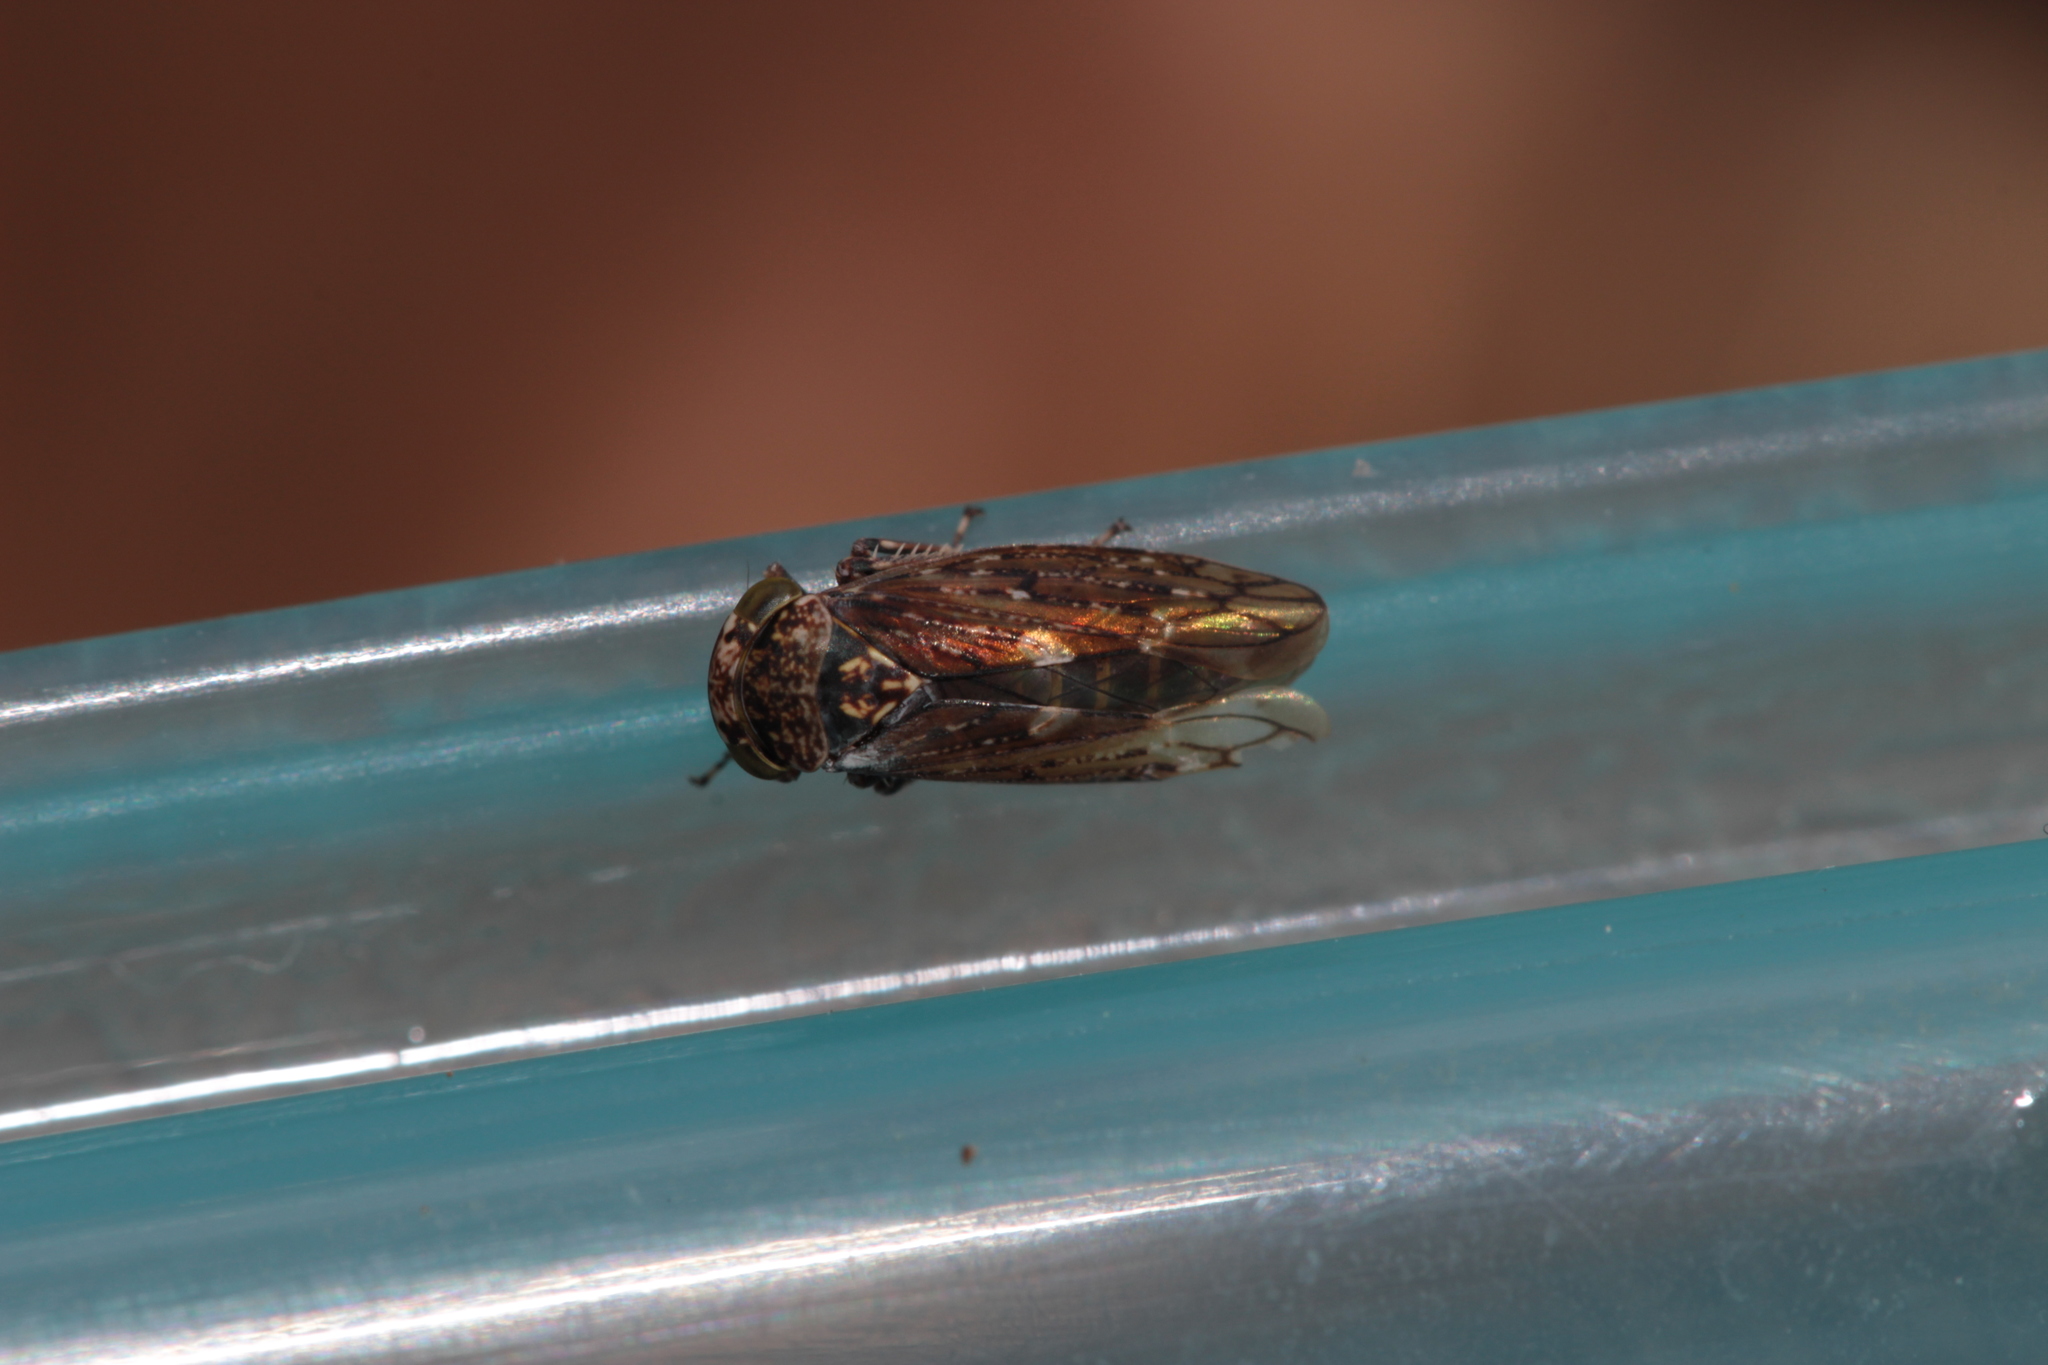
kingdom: Animalia
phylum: Arthropoda
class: Insecta
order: Hemiptera
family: Cicadellidae
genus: Acericerus
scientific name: Acericerus heydenii
